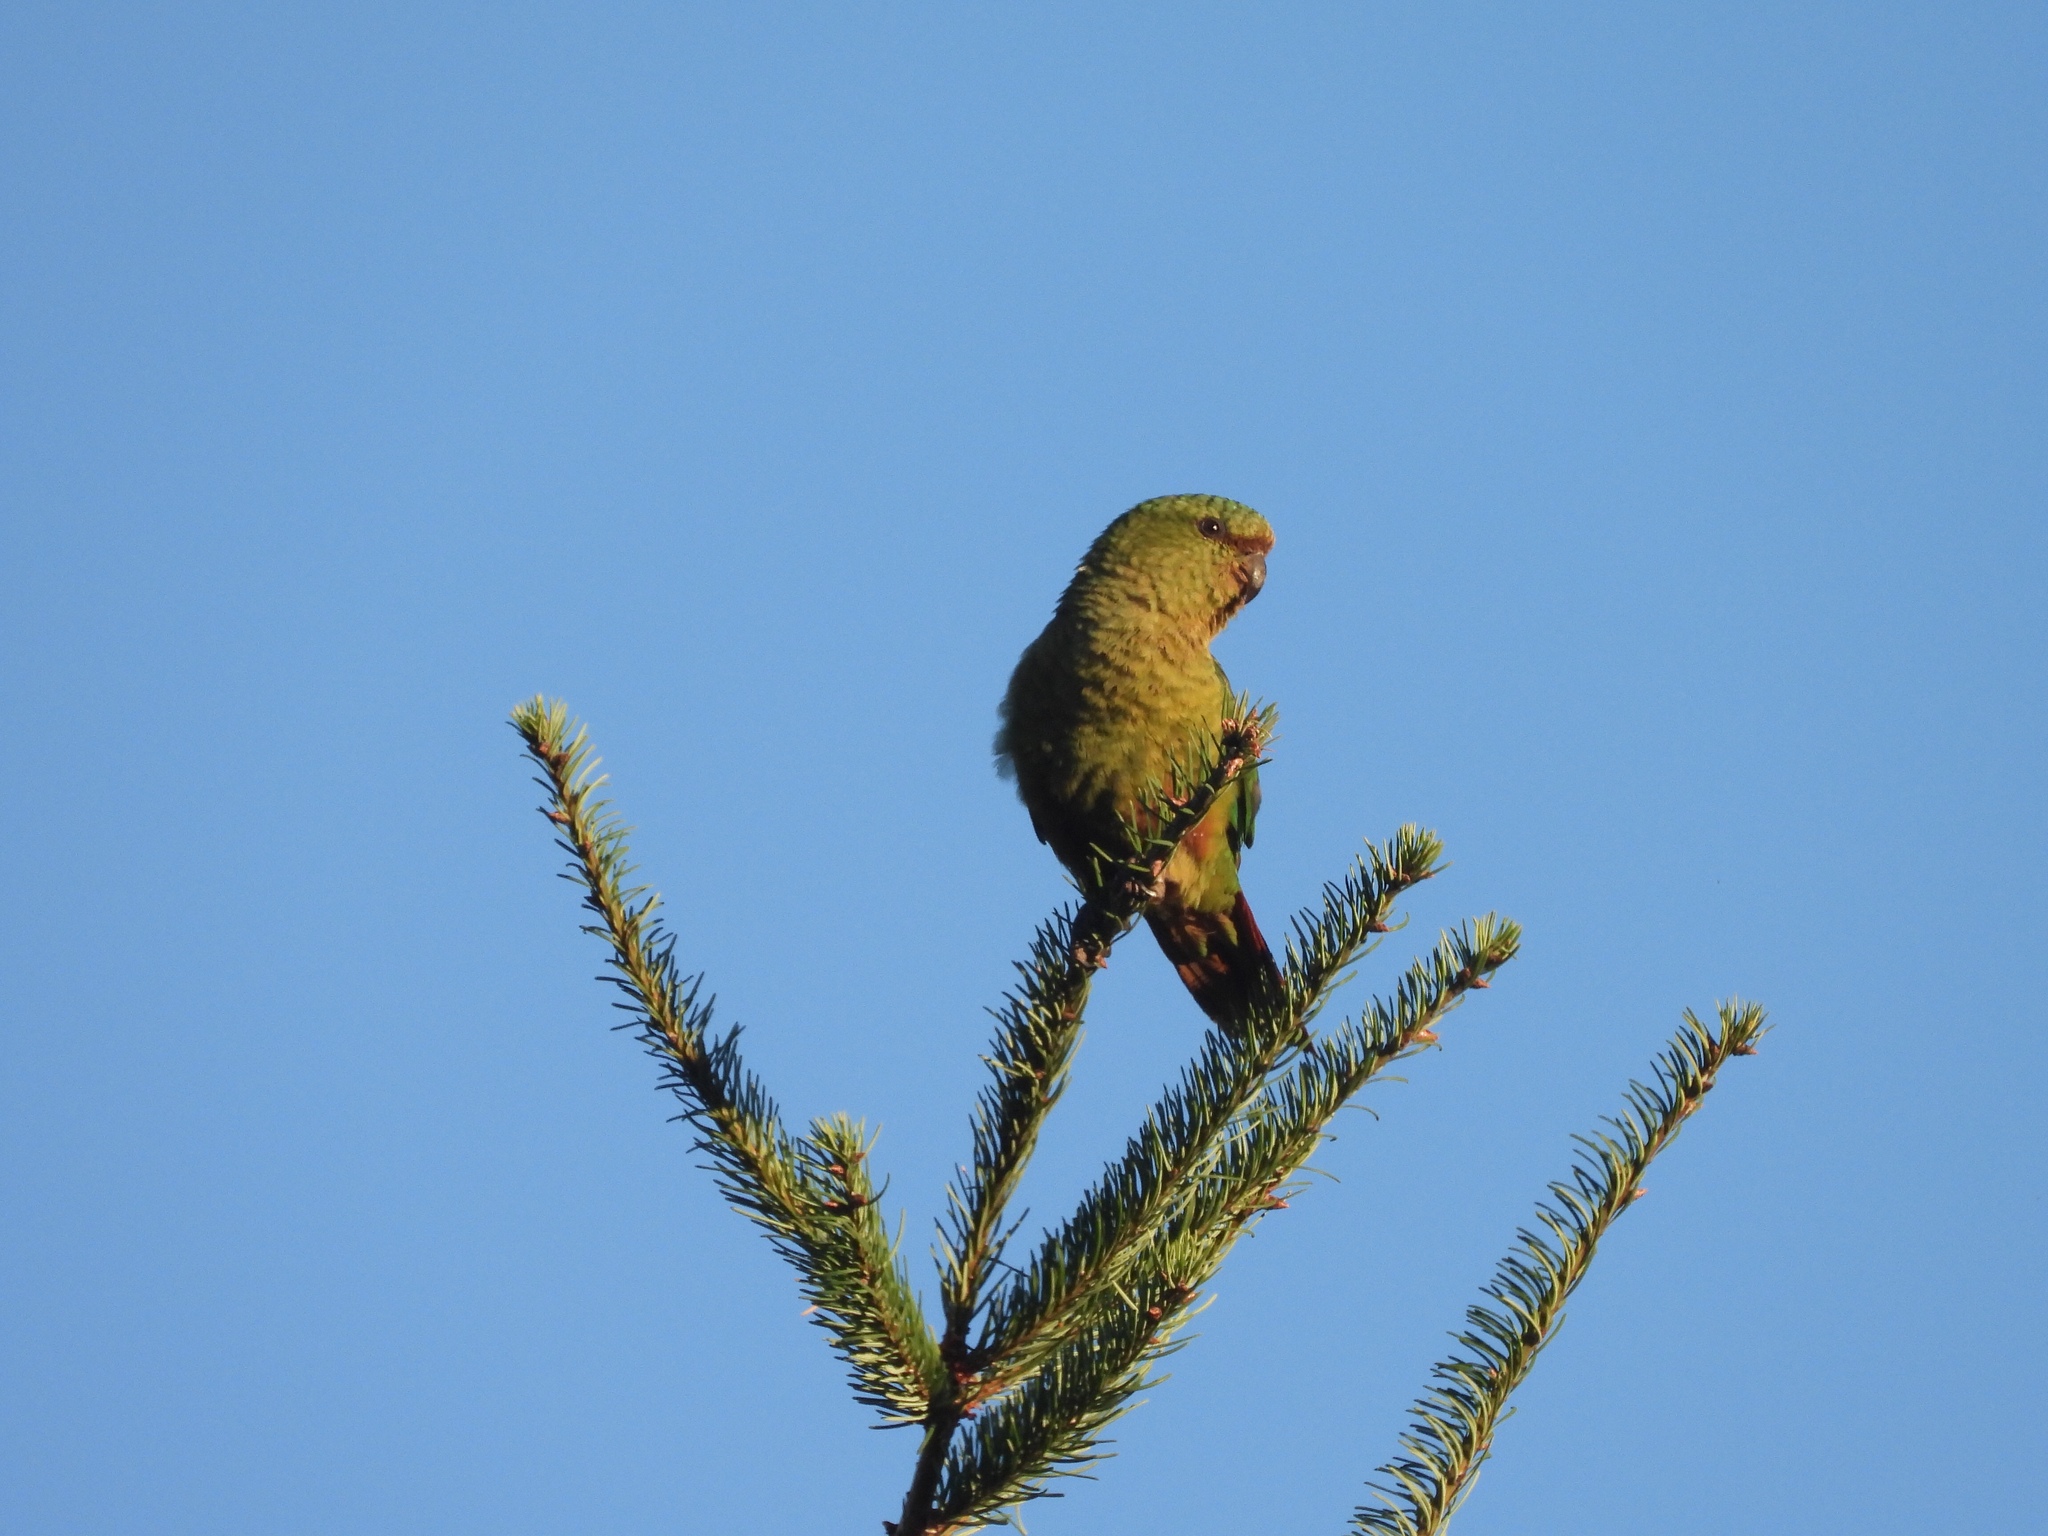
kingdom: Animalia
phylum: Chordata
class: Aves
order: Psittaciformes
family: Psittacidae
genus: Enicognathus
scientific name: Enicognathus ferrugineus
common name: Austral parakeet
